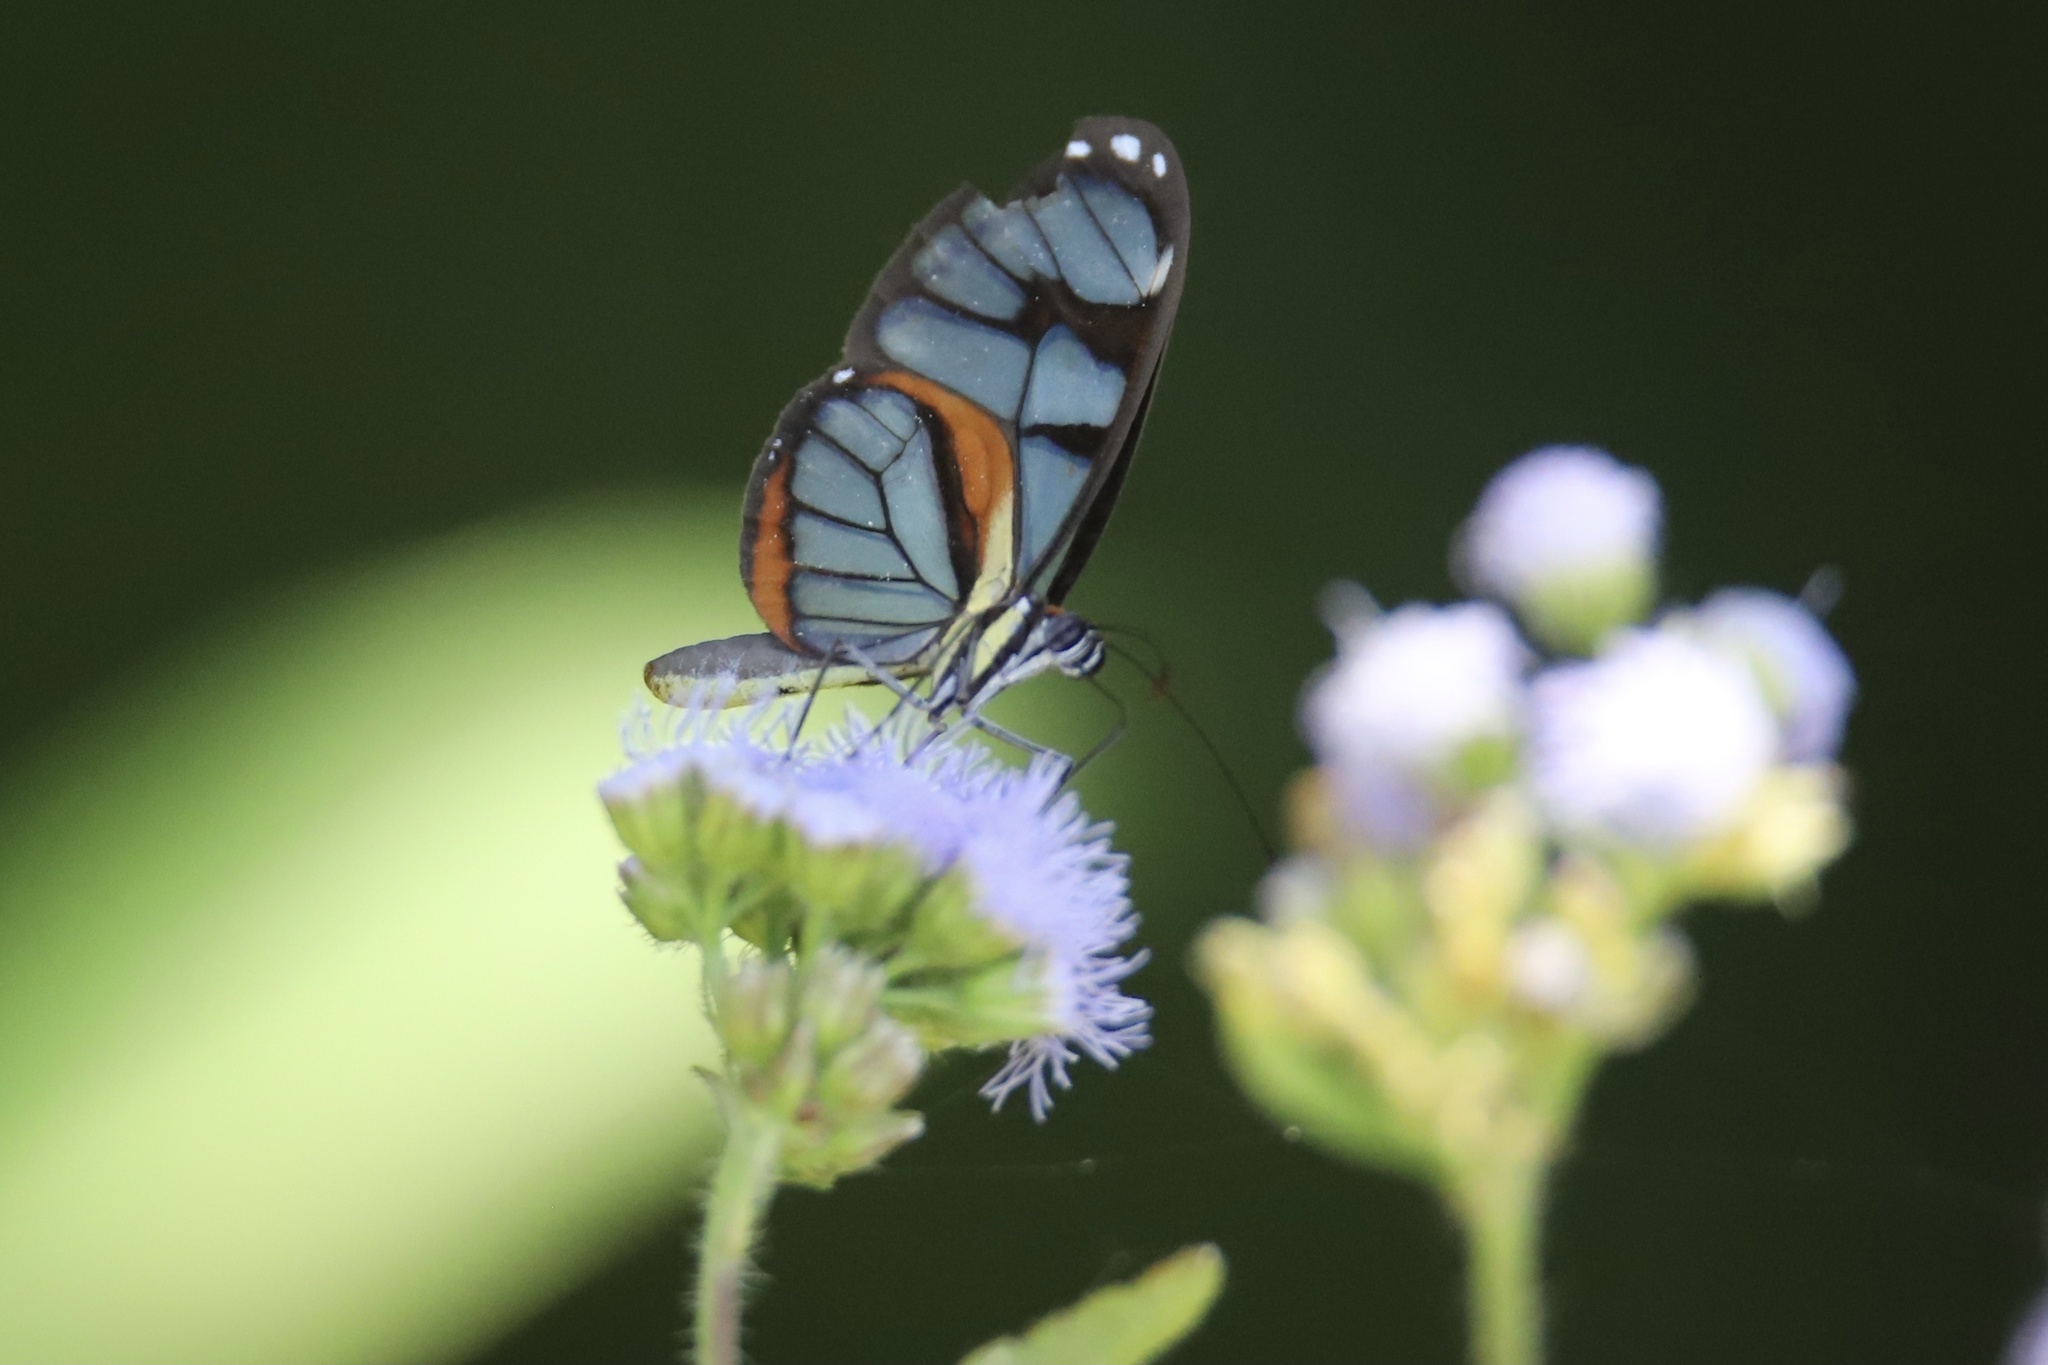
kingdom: Animalia
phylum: Arthropoda
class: Insecta
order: Lepidoptera
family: Nymphalidae
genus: Ithomia
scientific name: Ithomia diasia
